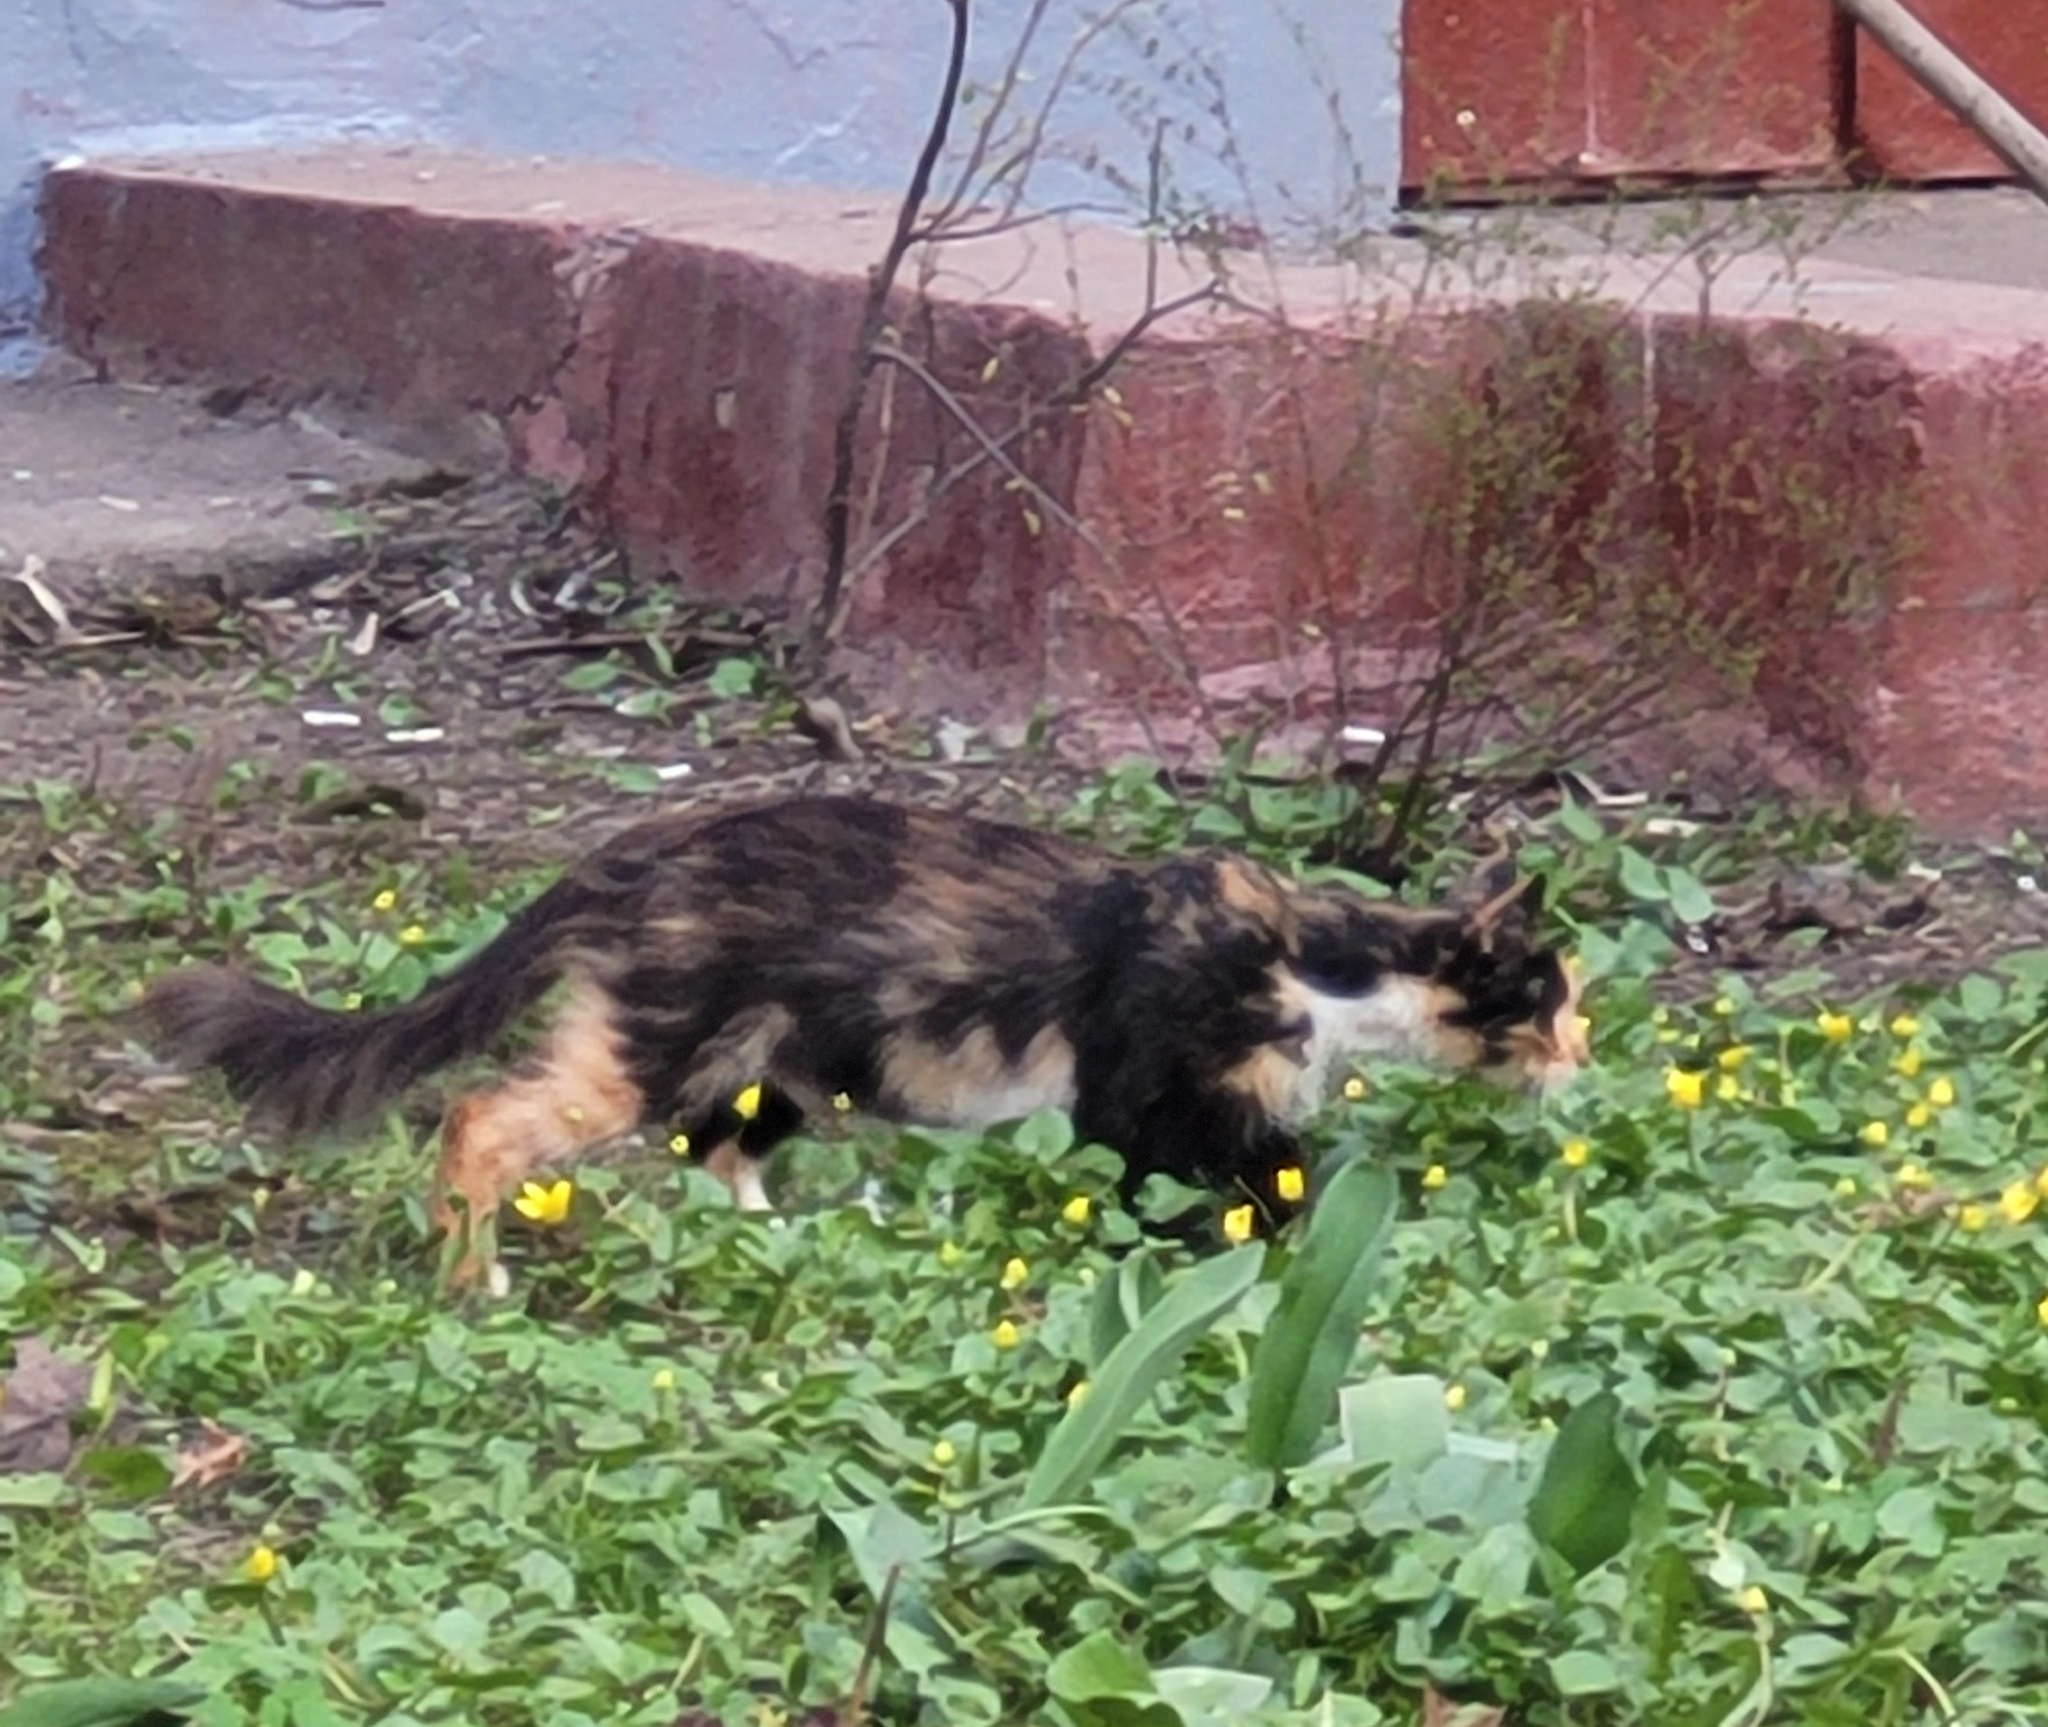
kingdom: Animalia
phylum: Chordata
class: Mammalia
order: Carnivora
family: Felidae
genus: Felis
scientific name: Felis catus
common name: Domestic cat
